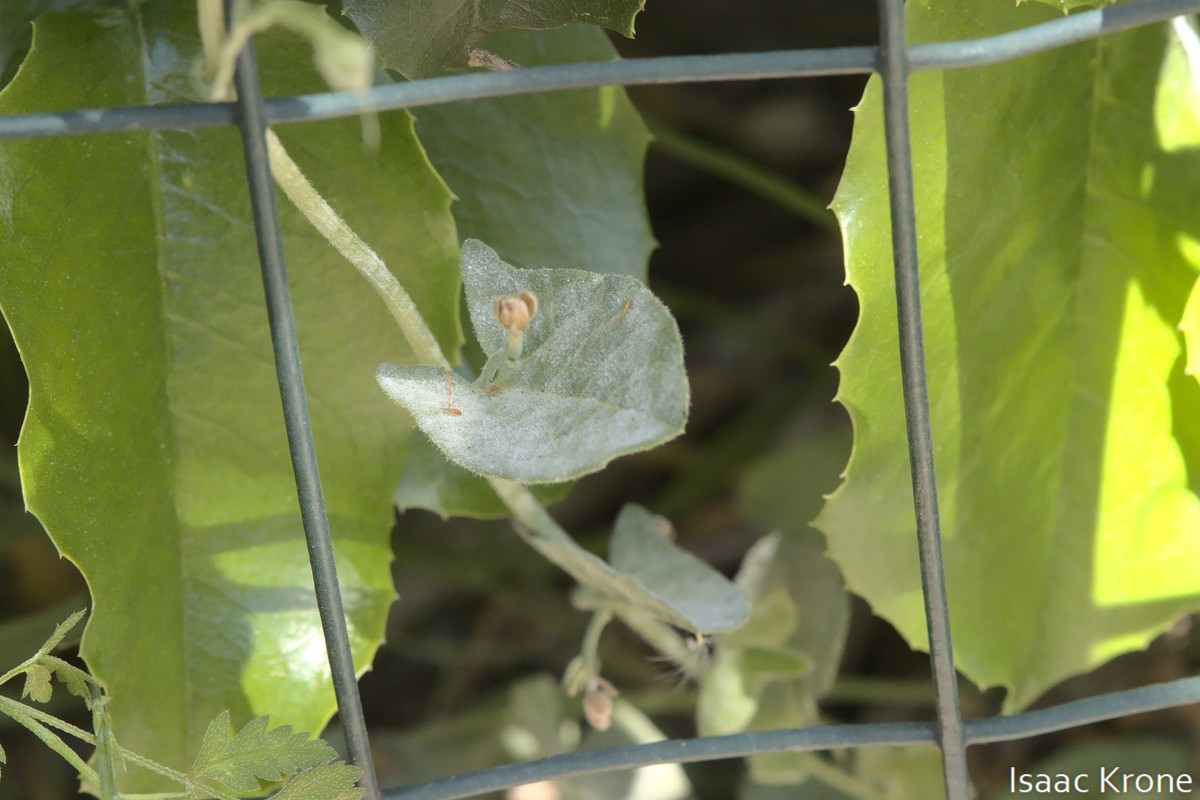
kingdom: Plantae
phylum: Tracheophyta
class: Magnoliopsida
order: Solanales
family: Convolvulaceae
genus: Convolvulus
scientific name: Convolvulus arvensis
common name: Field bindweed
